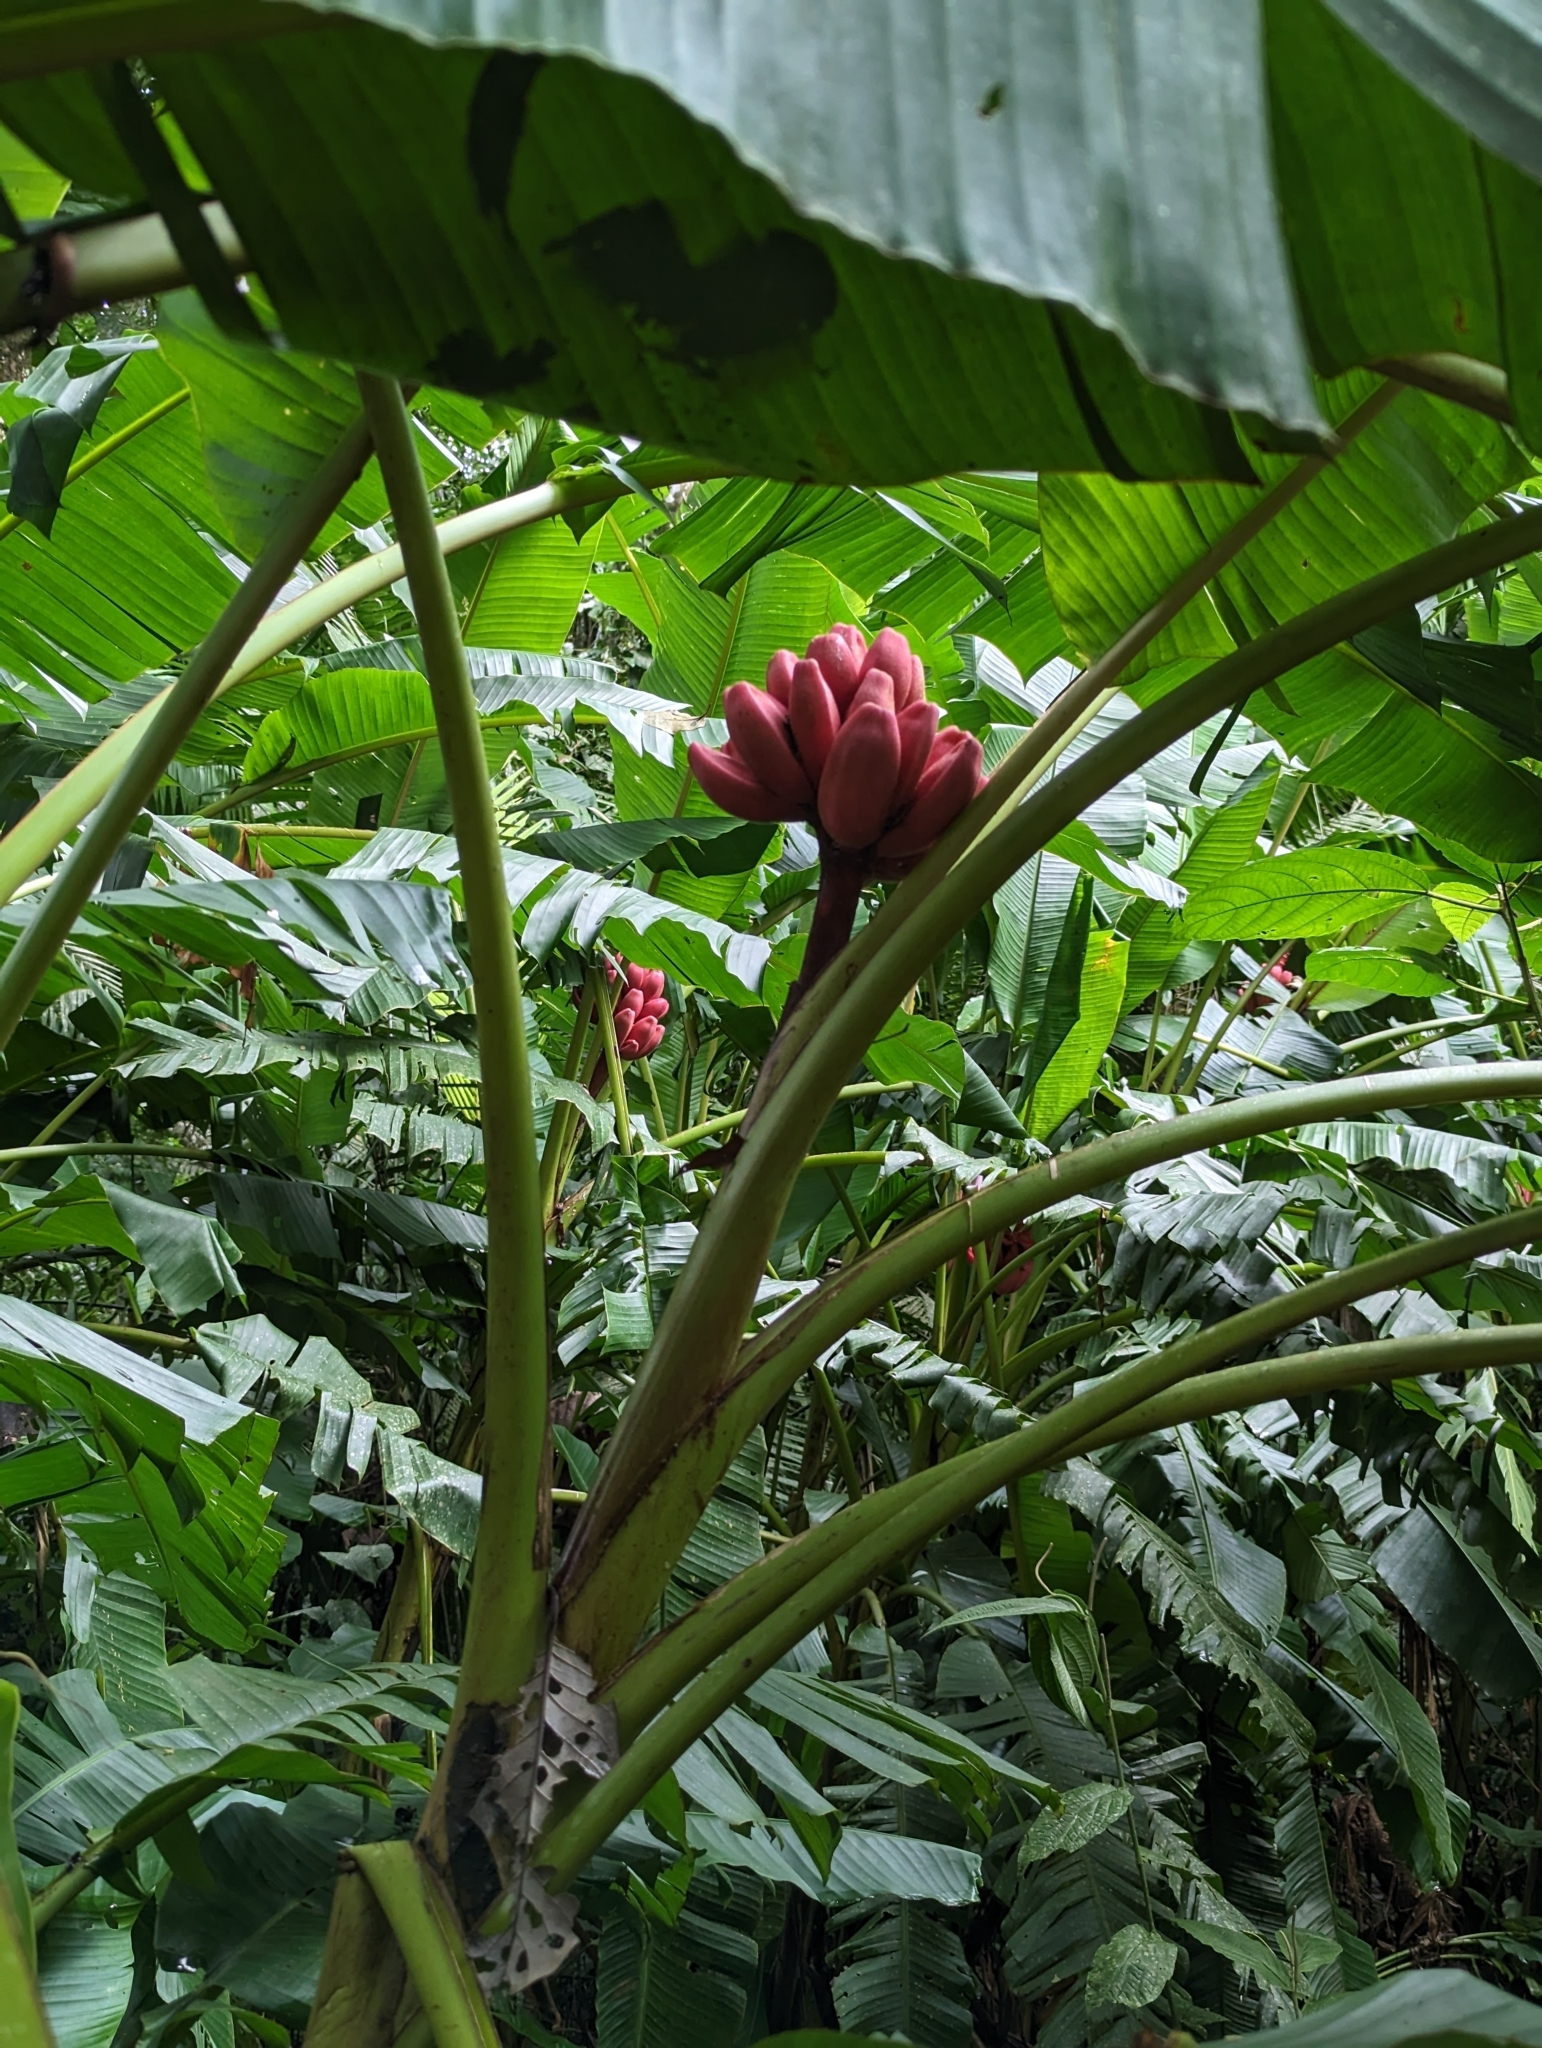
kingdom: Plantae
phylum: Tracheophyta
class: Liliopsida
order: Zingiberales
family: Musaceae
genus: Musa
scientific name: Musa velutina
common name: Pink velvet banana
